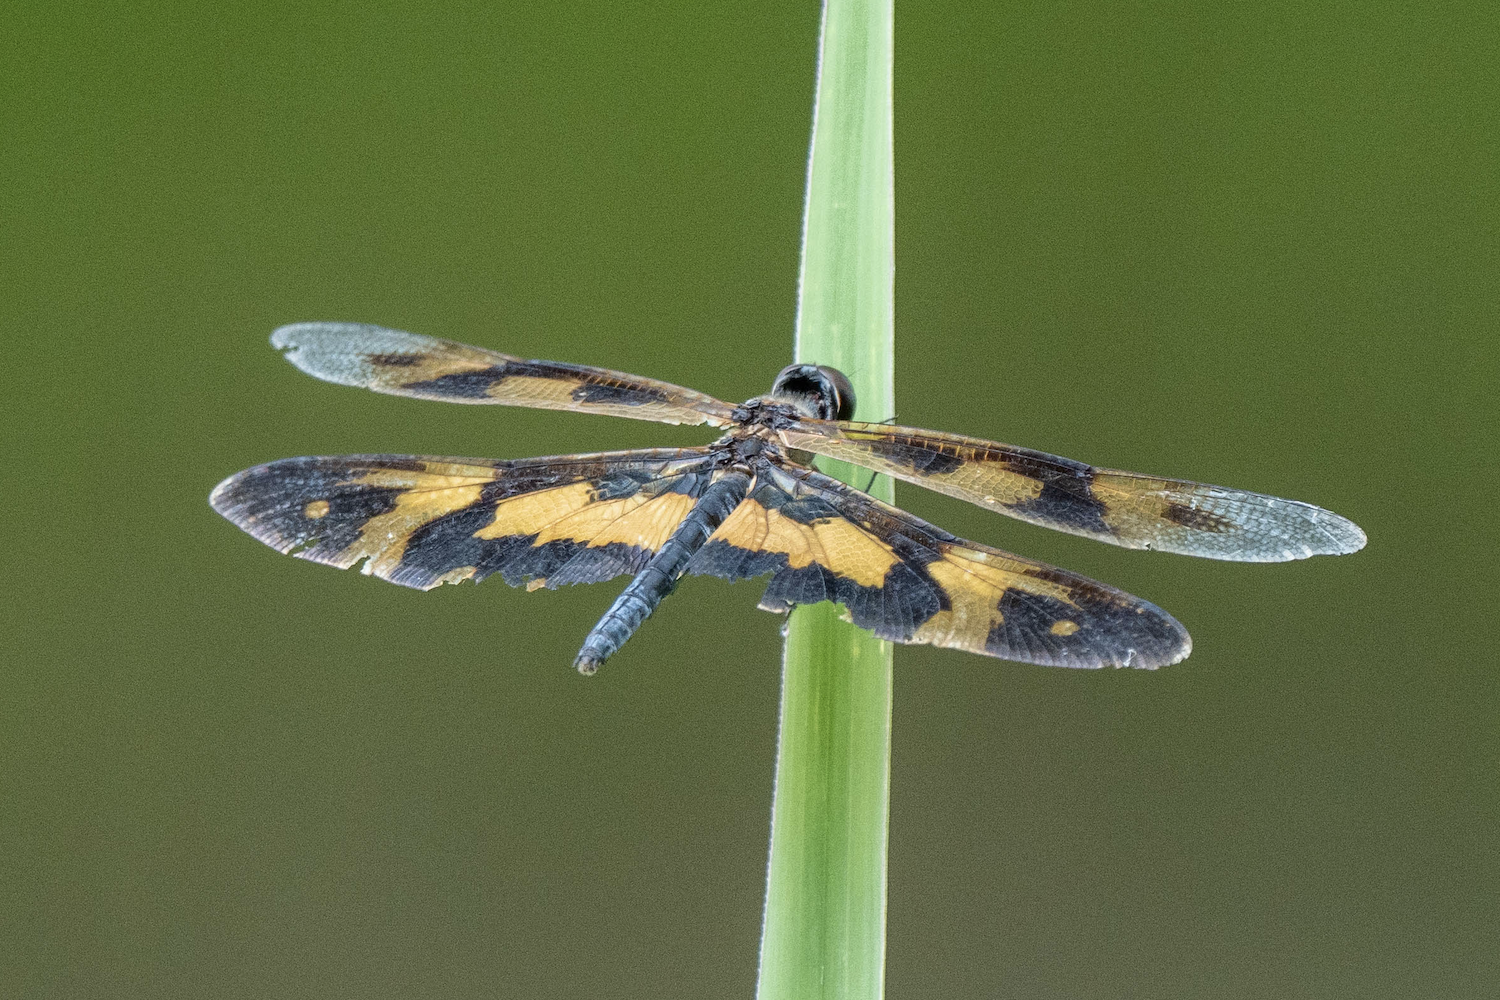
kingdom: Animalia
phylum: Arthropoda
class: Insecta
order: Odonata
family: Libellulidae
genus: Rhyothemis
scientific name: Rhyothemis variegata
